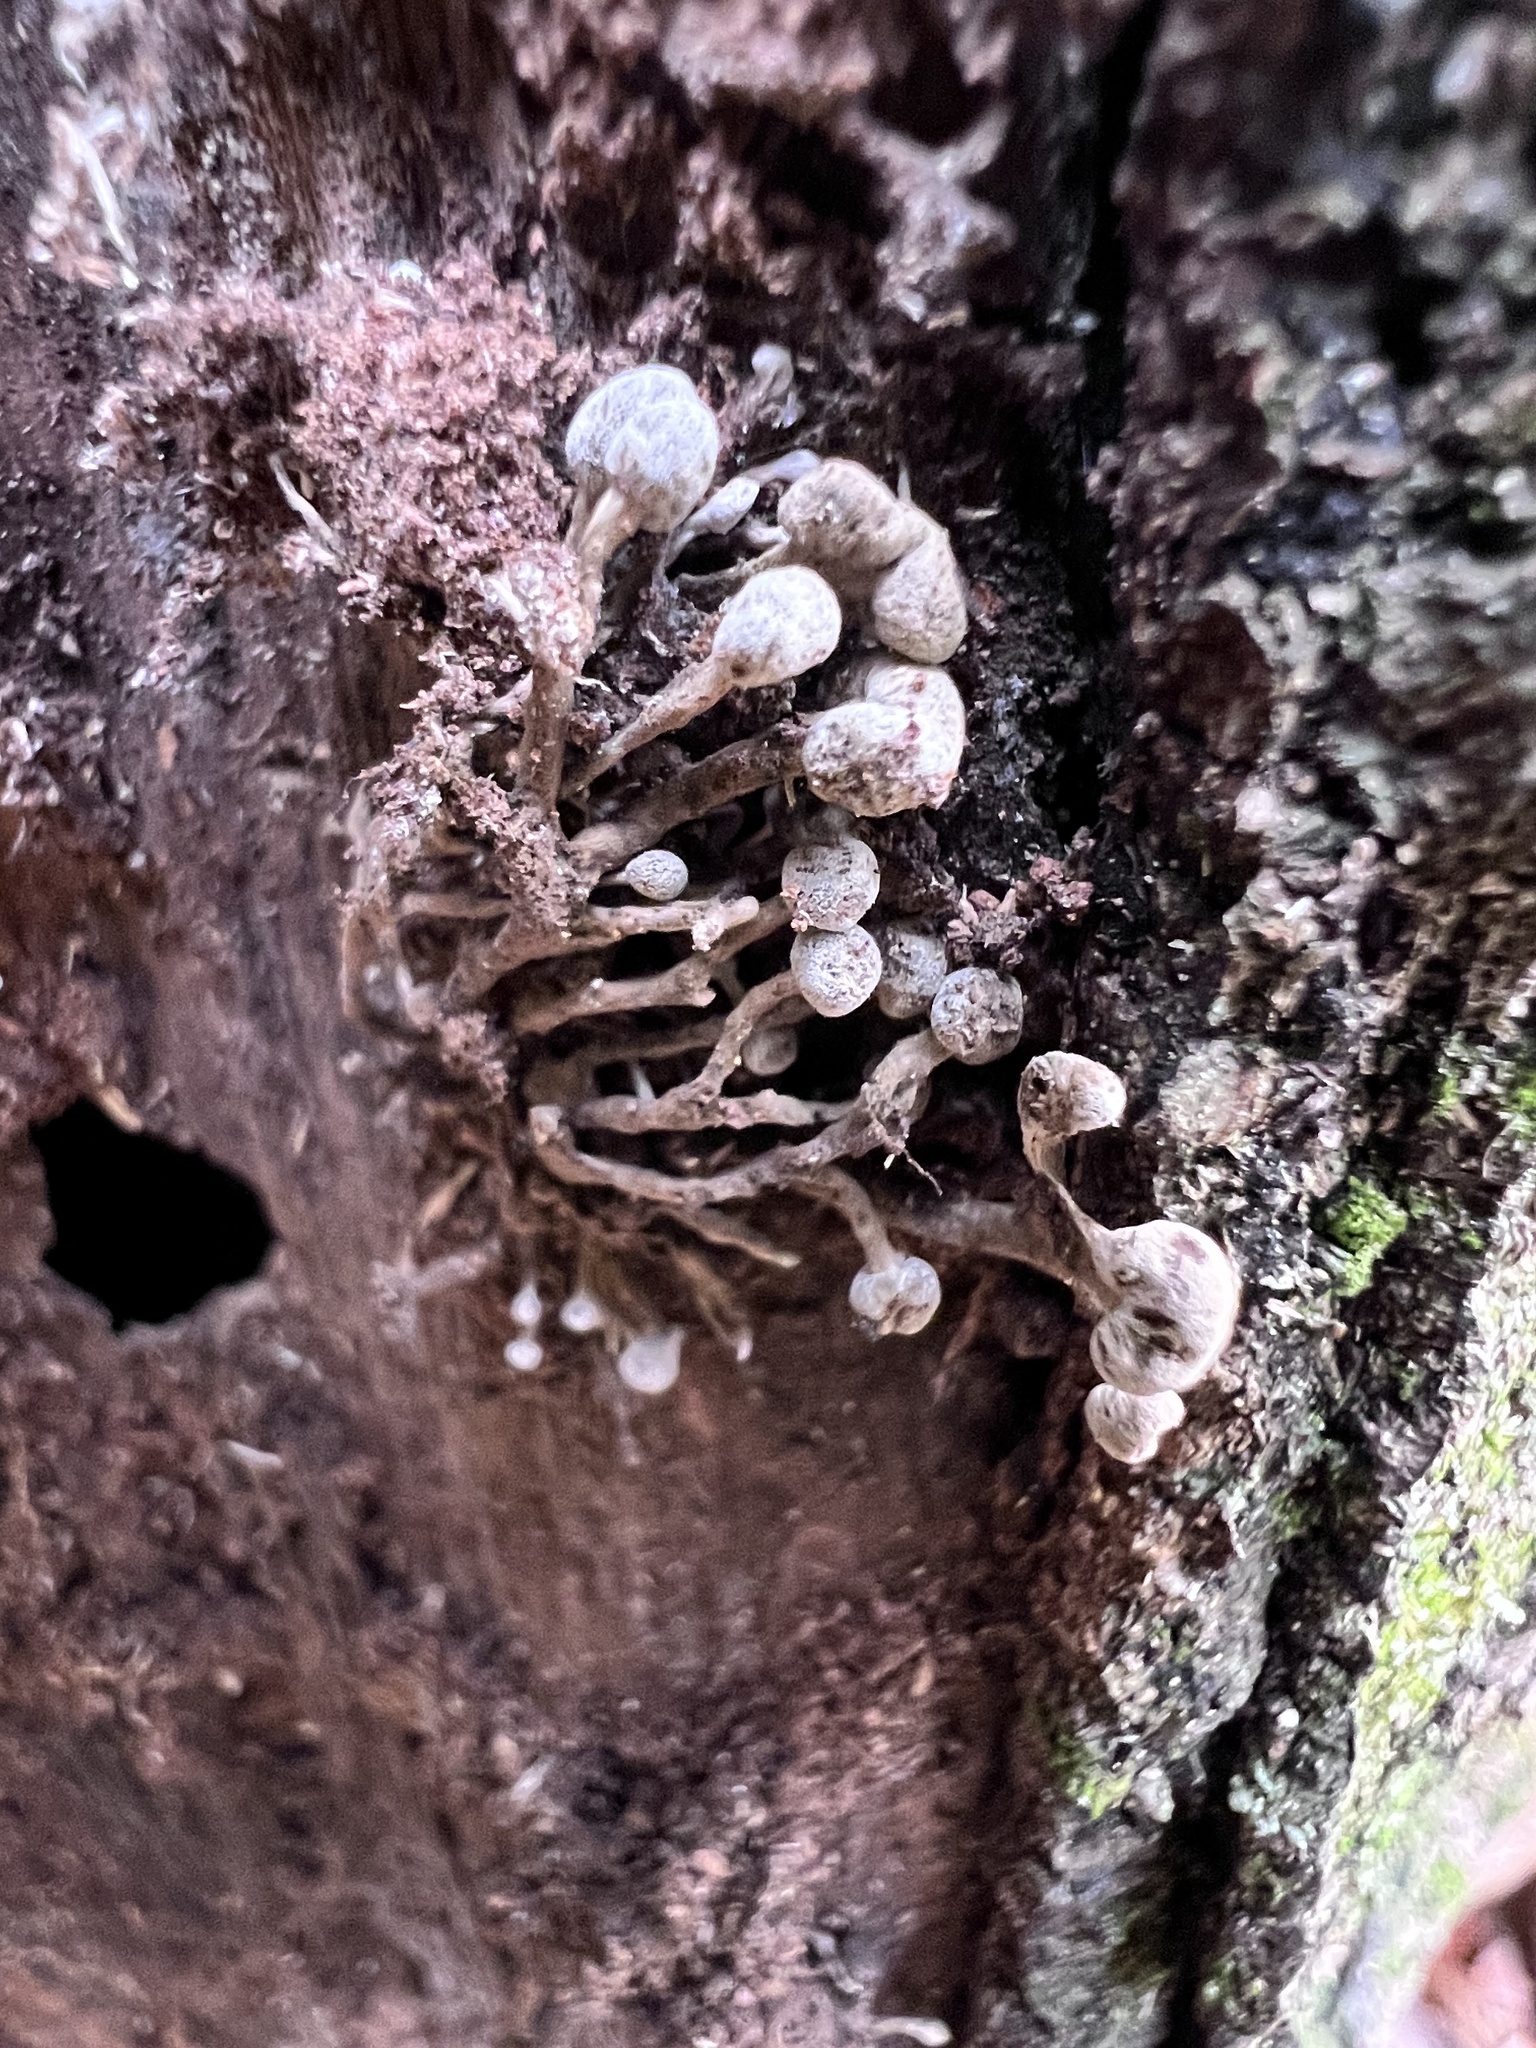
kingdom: Fungi
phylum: Basidiomycota
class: Atractiellomycetes
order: Atractiellales
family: Phleogenaceae
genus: Phleogena
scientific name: Phleogena faginea
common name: Fenugreek stalkball
